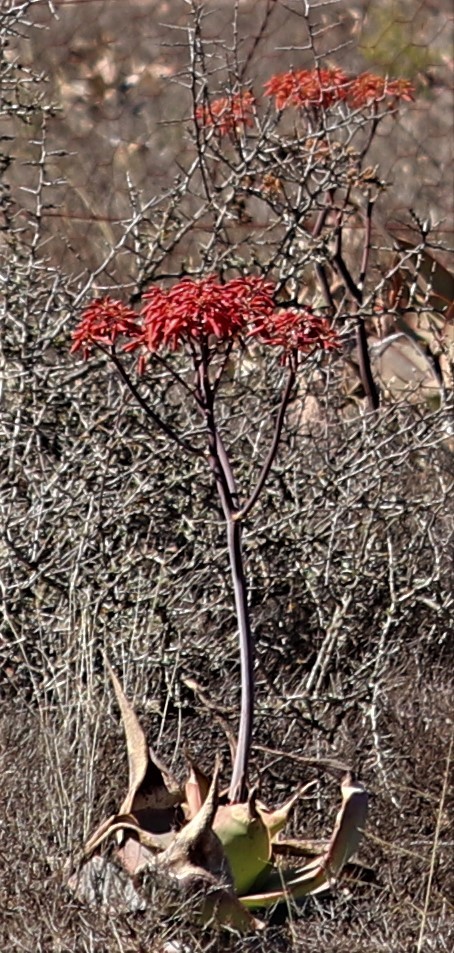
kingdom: Plantae
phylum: Tracheophyta
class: Liliopsida
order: Asparagales
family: Asphodelaceae
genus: Aloe
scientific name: Aloe striata
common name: Coral aloe
